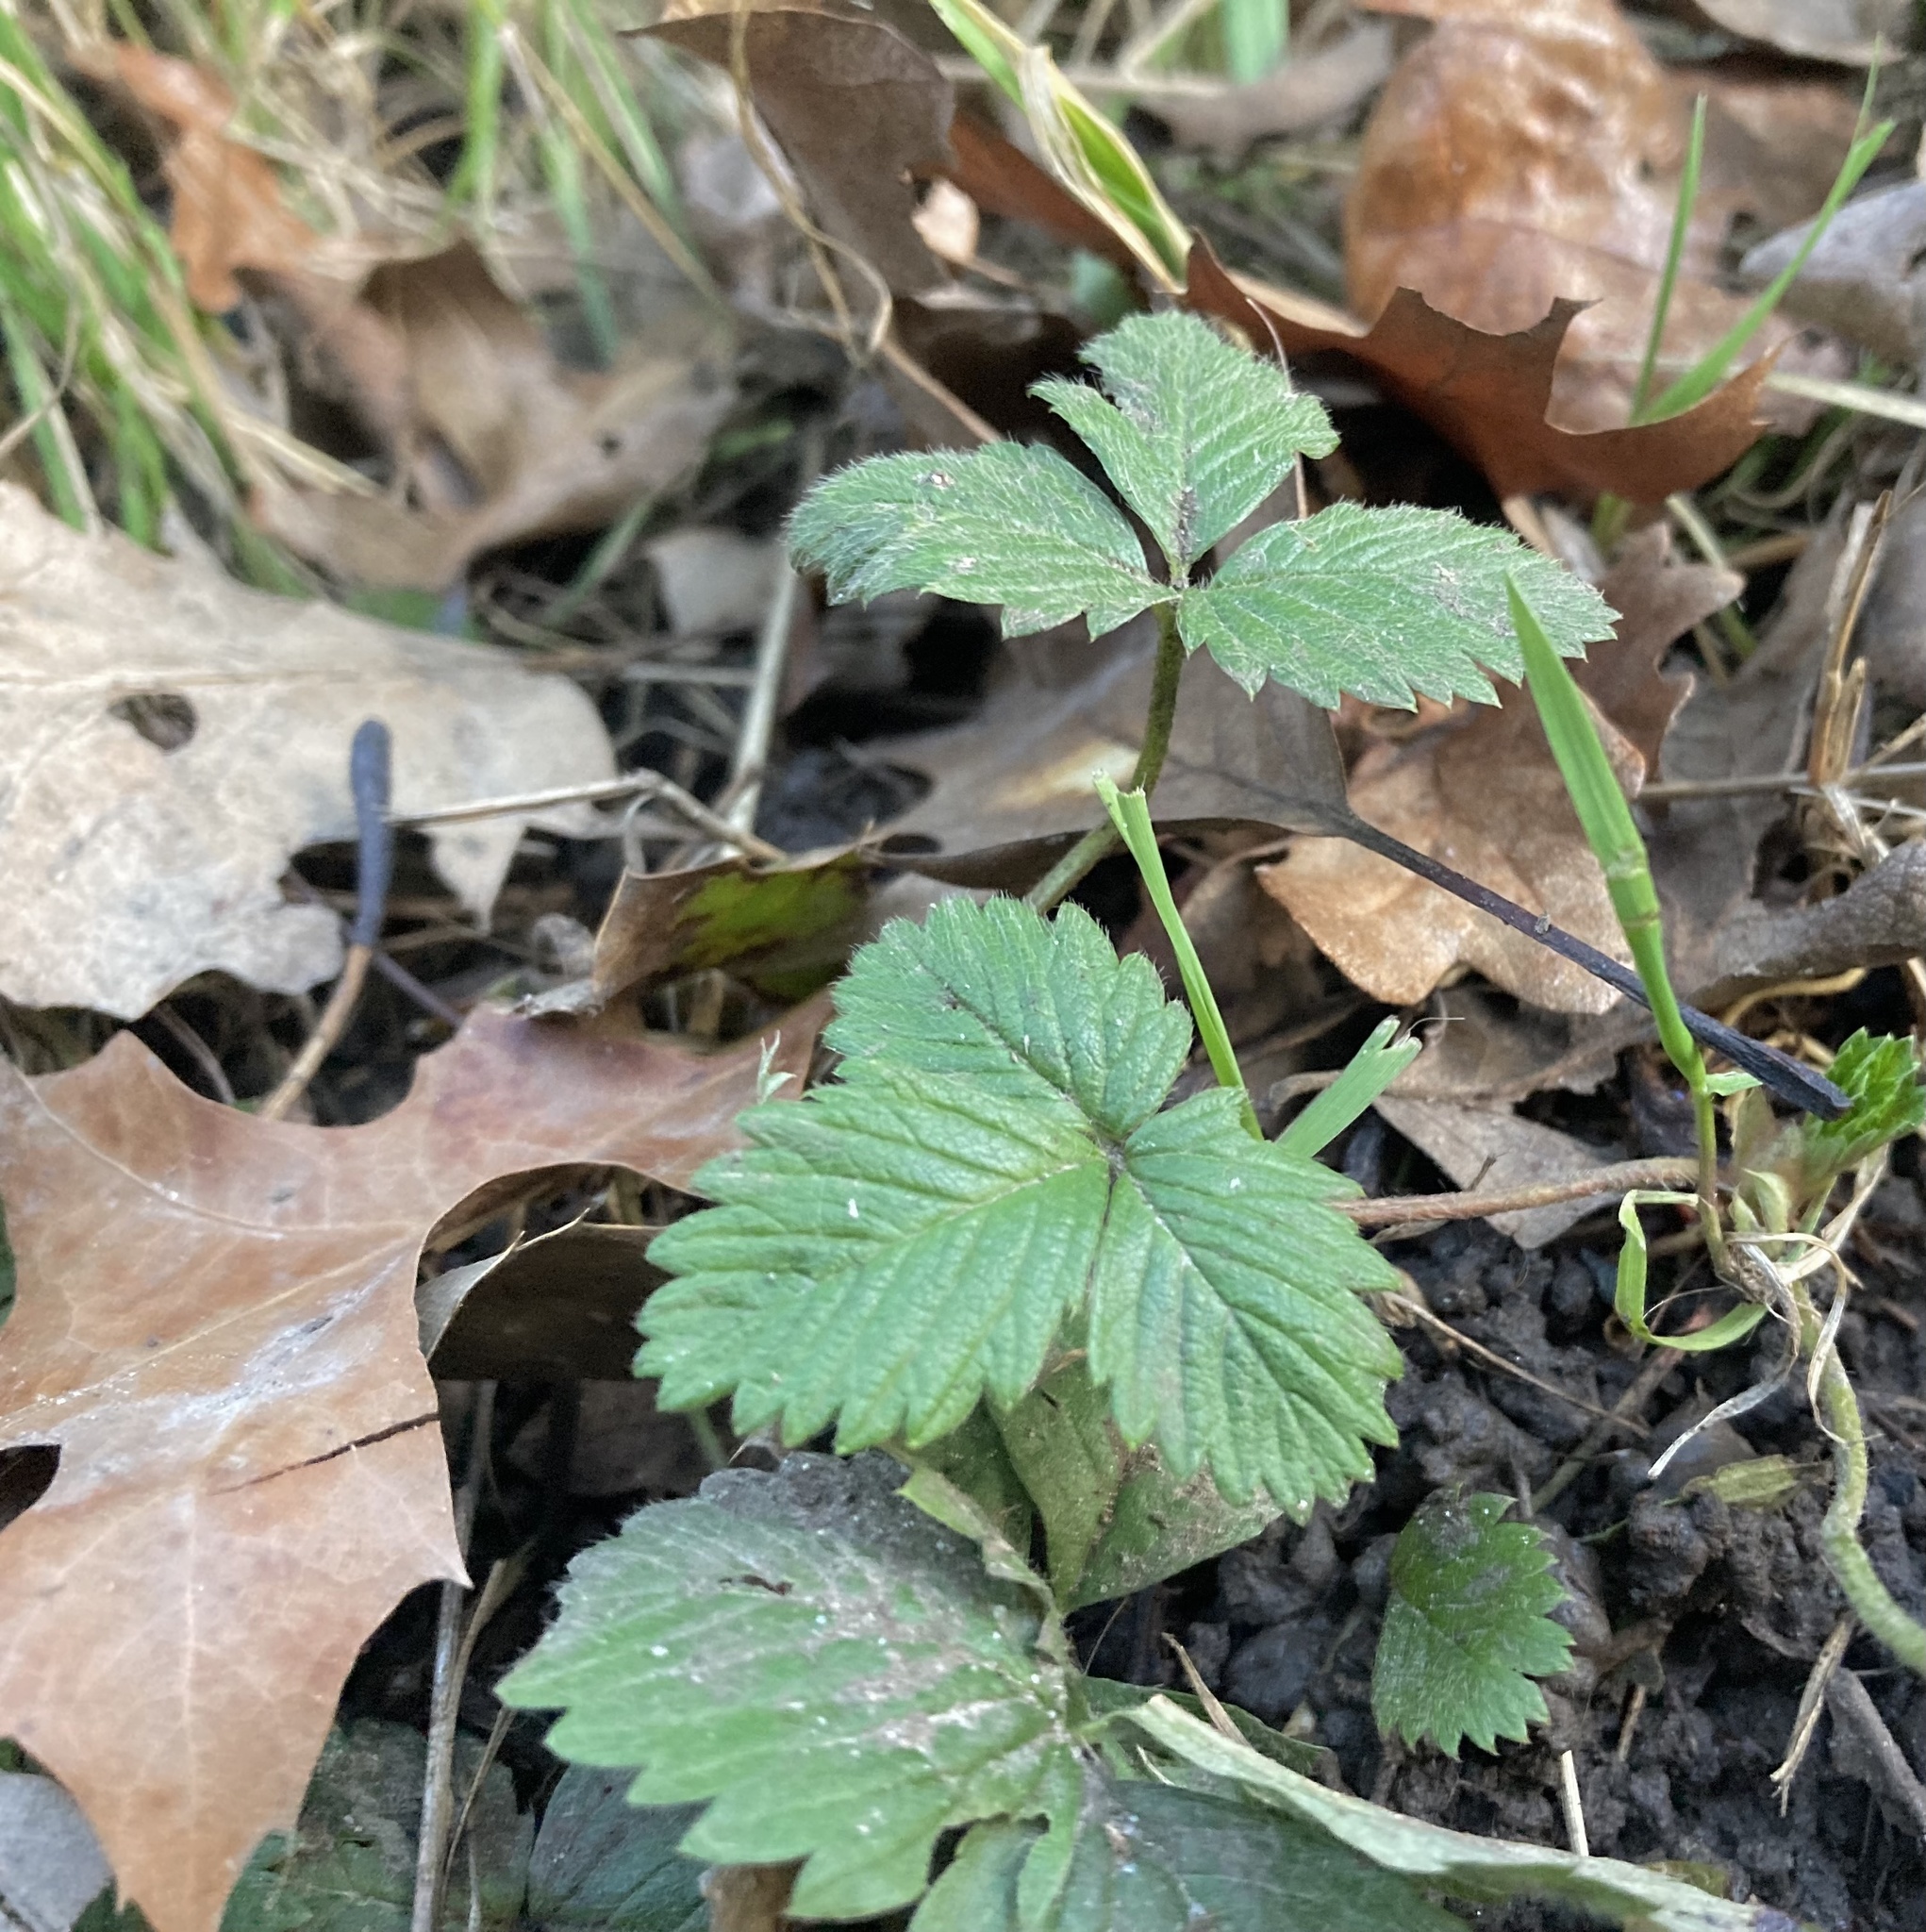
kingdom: Plantae
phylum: Tracheophyta
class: Magnoliopsida
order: Rosales
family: Rosaceae
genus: Fragaria
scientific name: Fragaria vesca
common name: Wild strawberry
